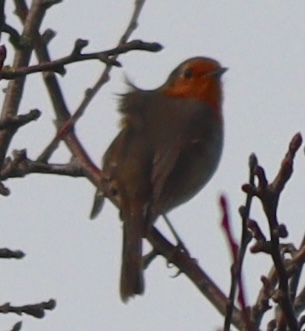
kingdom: Animalia
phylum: Chordata
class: Aves
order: Passeriformes
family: Muscicapidae
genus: Erithacus
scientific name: Erithacus rubecula
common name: European robin
